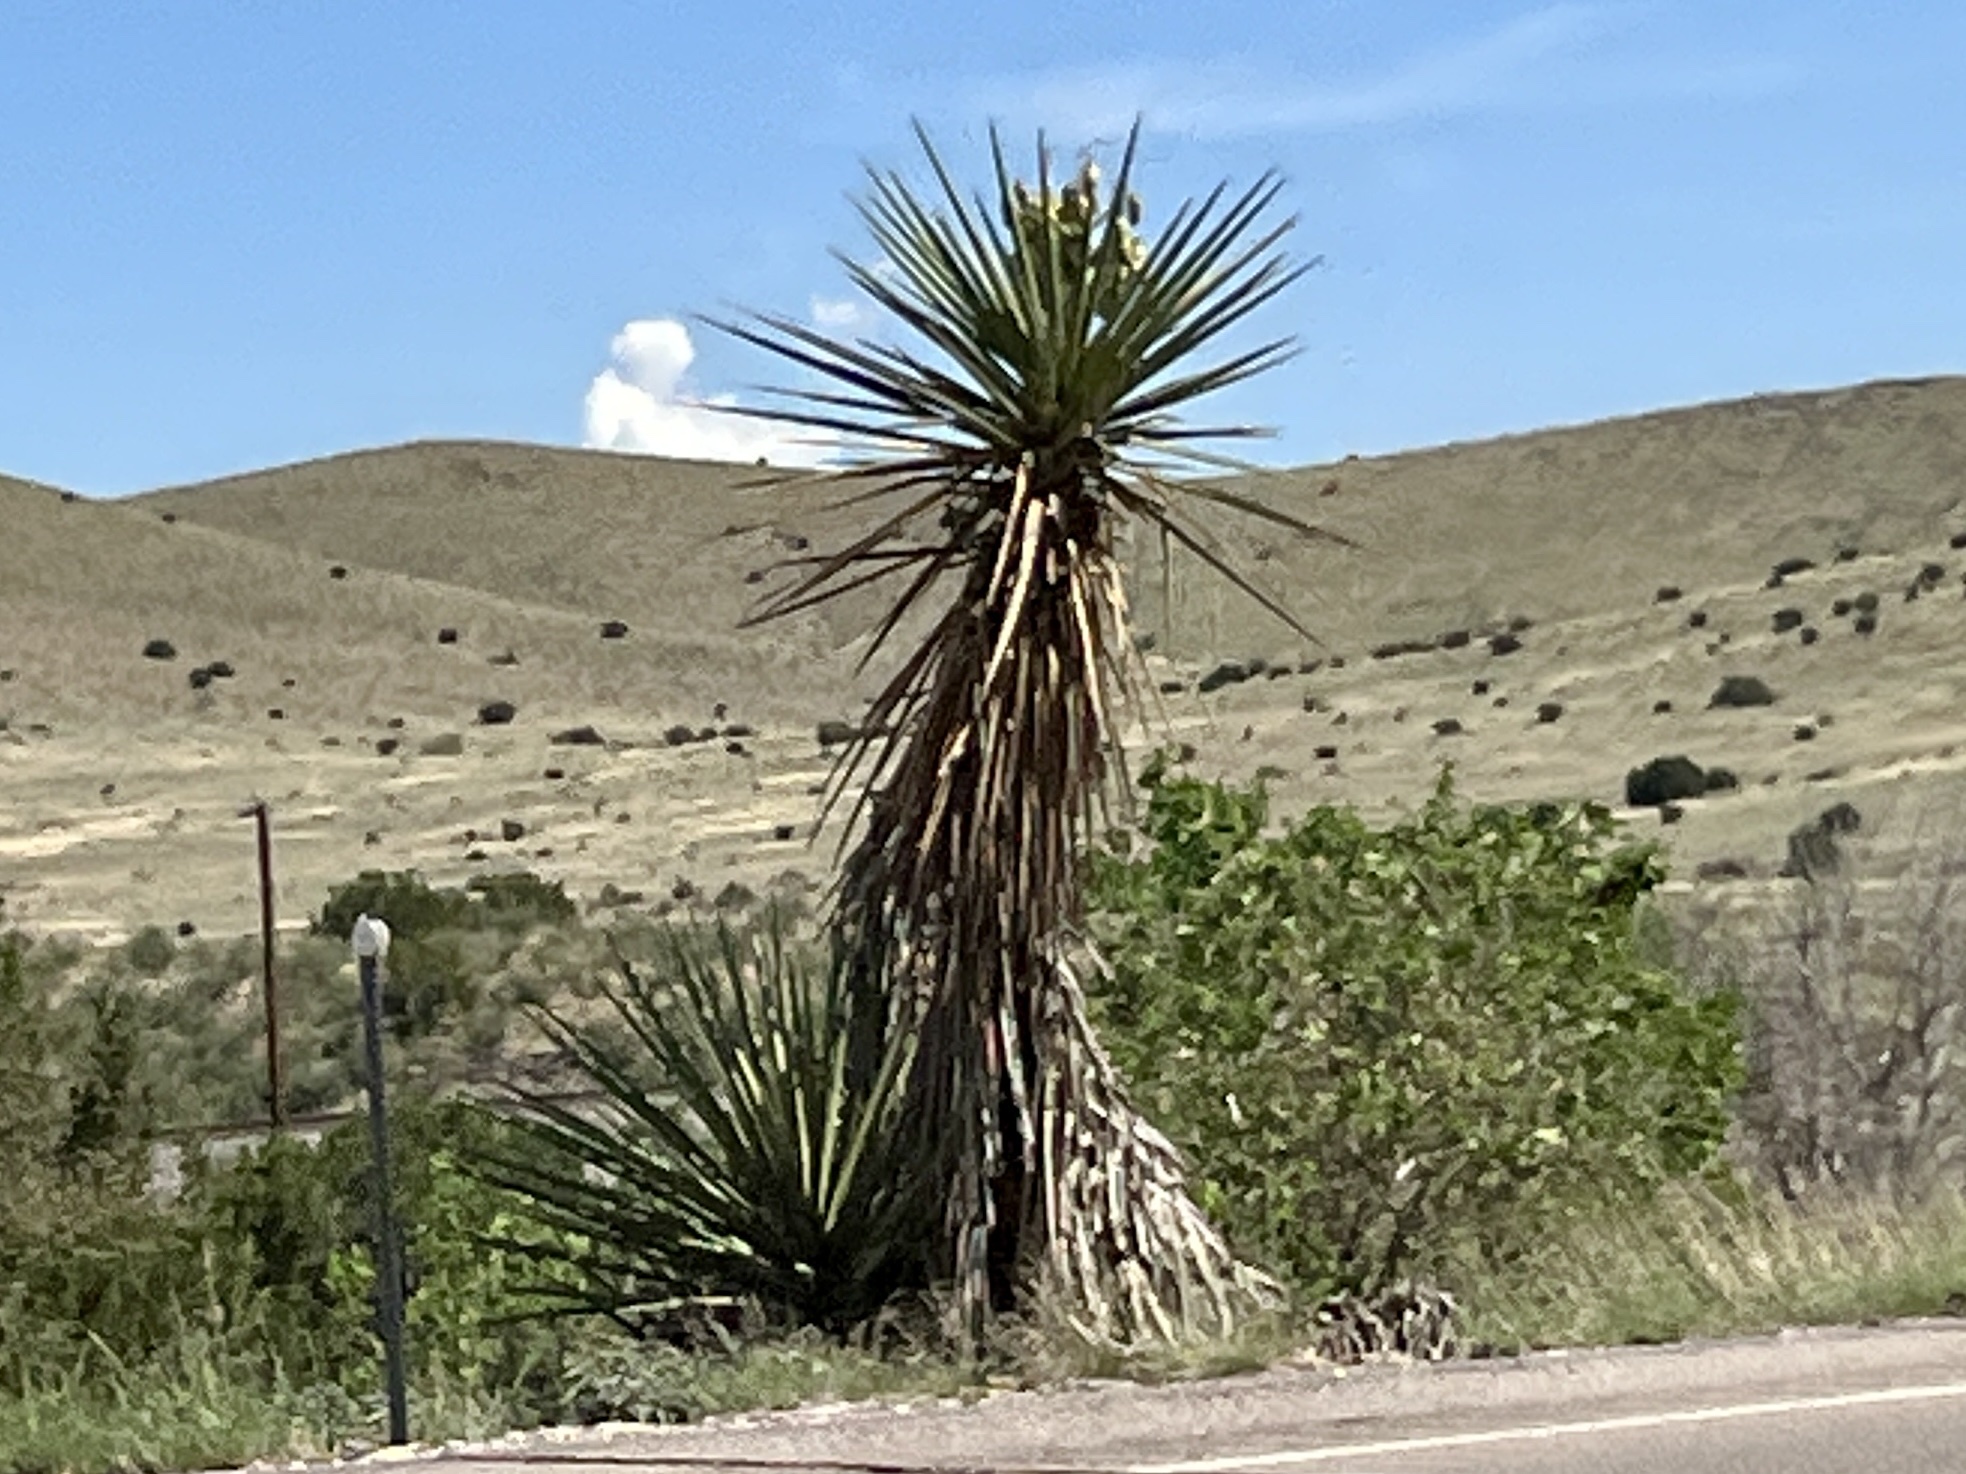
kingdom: Plantae
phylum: Tracheophyta
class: Liliopsida
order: Asparagales
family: Asparagaceae
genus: Yucca
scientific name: Yucca treculiana
